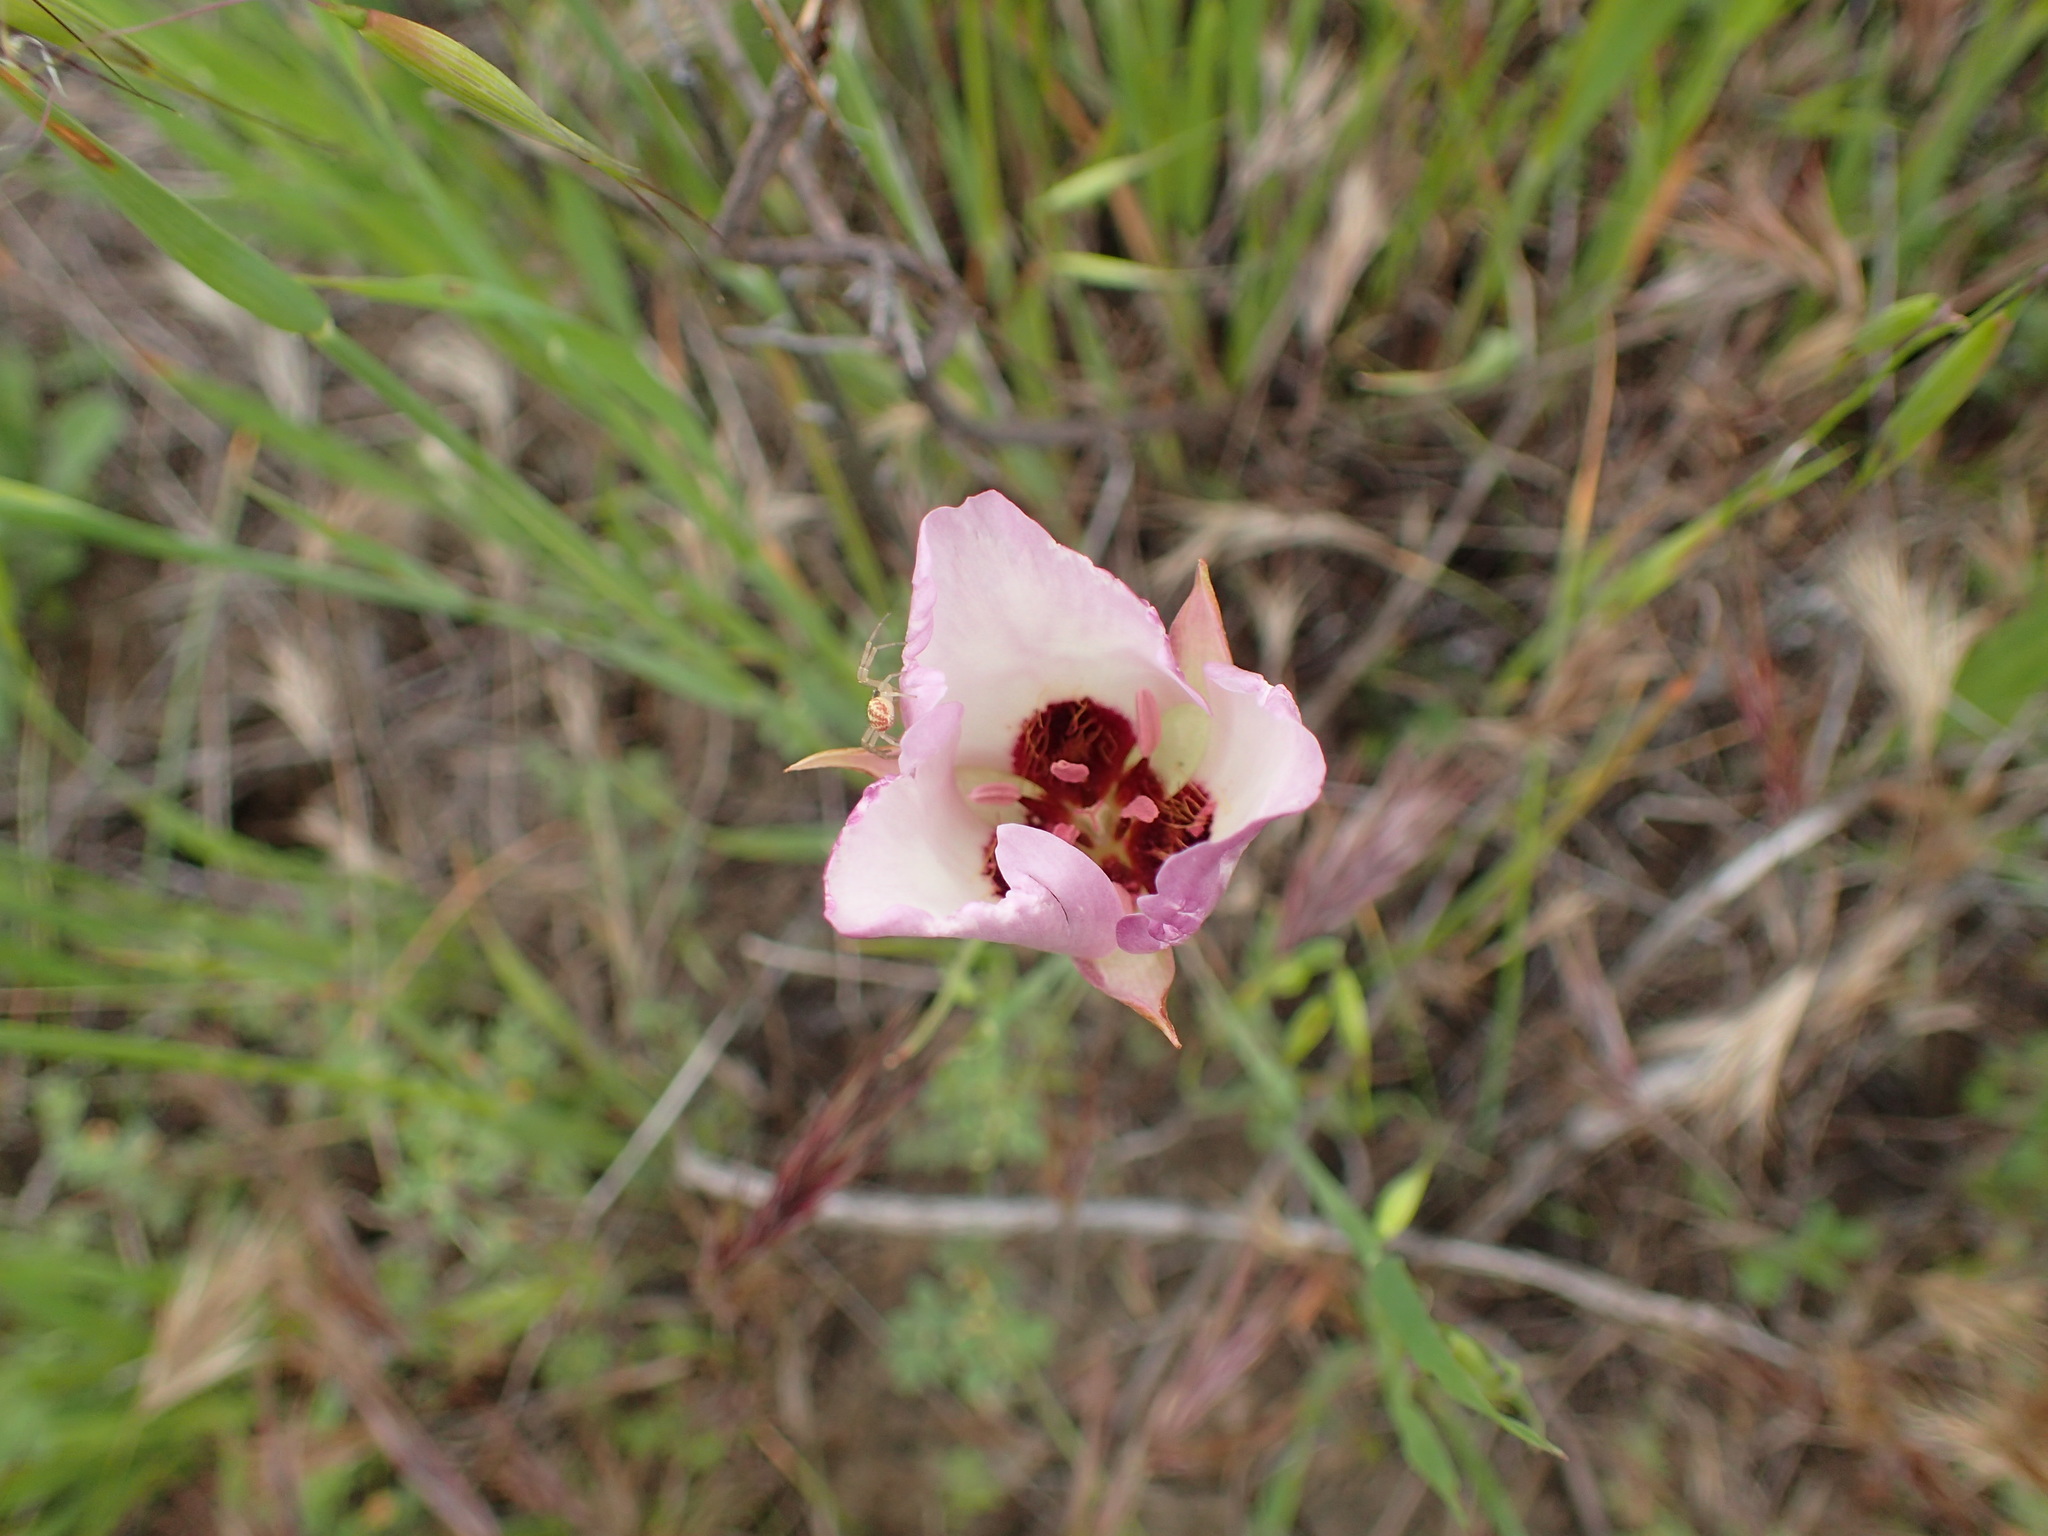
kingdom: Plantae
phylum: Tracheophyta
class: Liliopsida
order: Liliales
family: Liliaceae
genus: Calochortus
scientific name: Calochortus catalinae
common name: Catalina mariposa-lily
